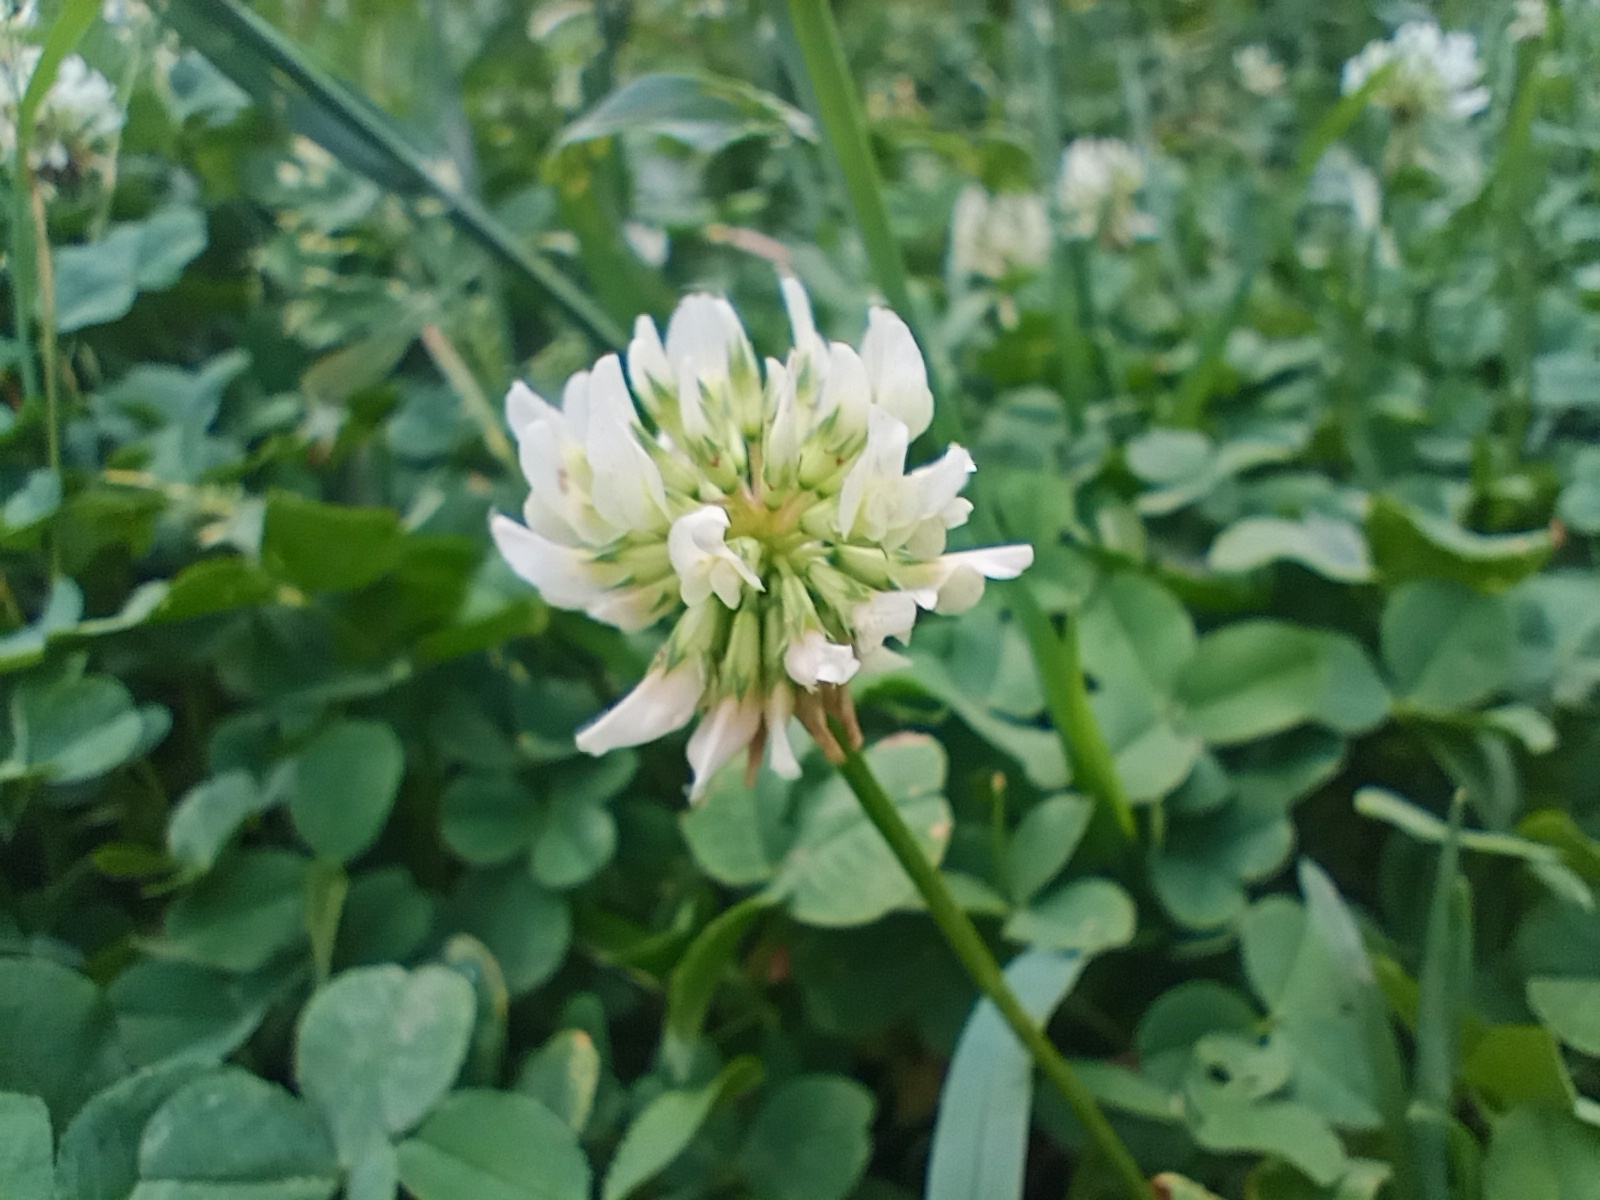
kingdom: Plantae
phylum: Tracheophyta
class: Magnoliopsida
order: Fabales
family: Fabaceae
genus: Trifolium
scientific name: Trifolium repens
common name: White clover
